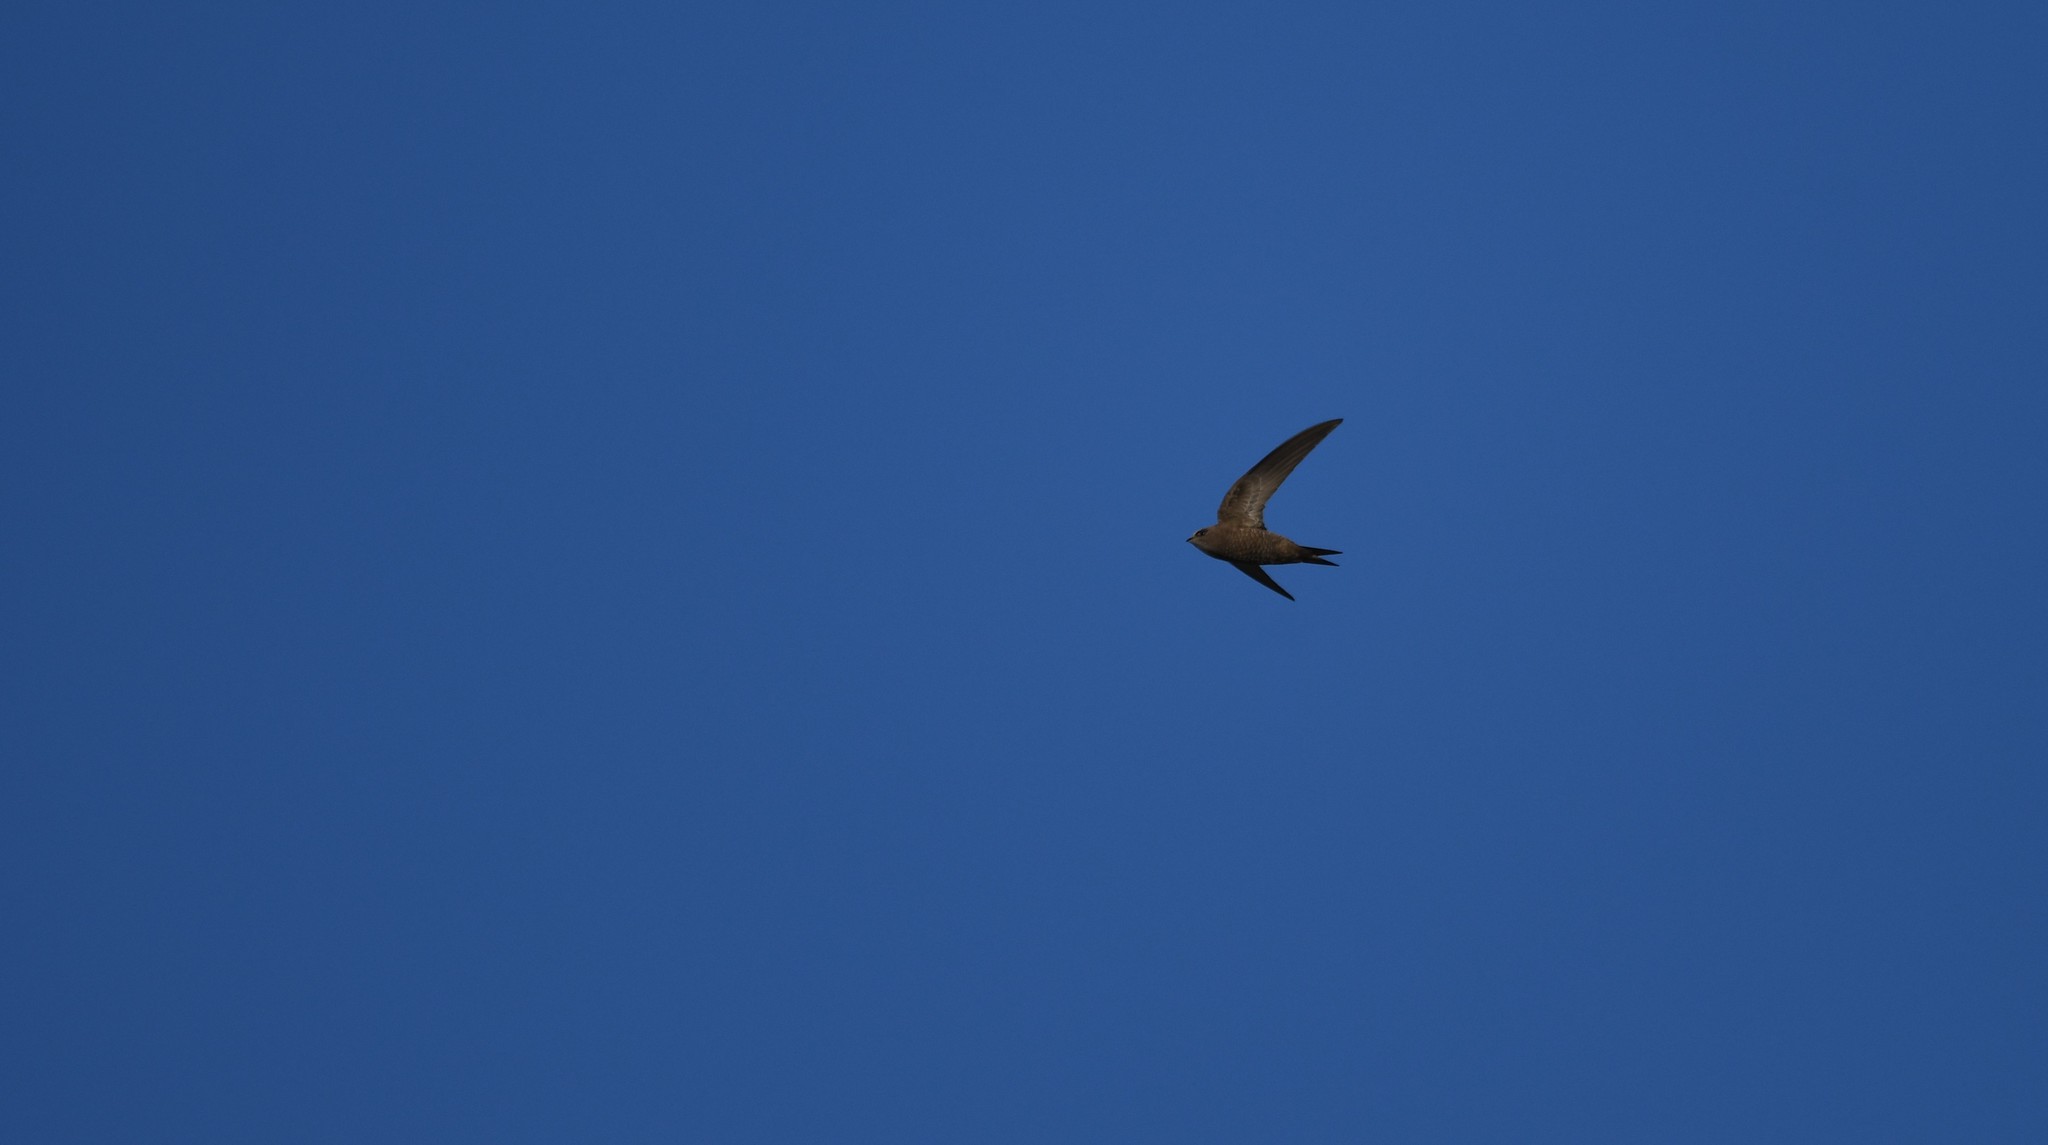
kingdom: Animalia
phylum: Chordata
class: Aves
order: Apodiformes
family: Apodidae
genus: Apus
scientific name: Apus pallidus
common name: Pallid swift
